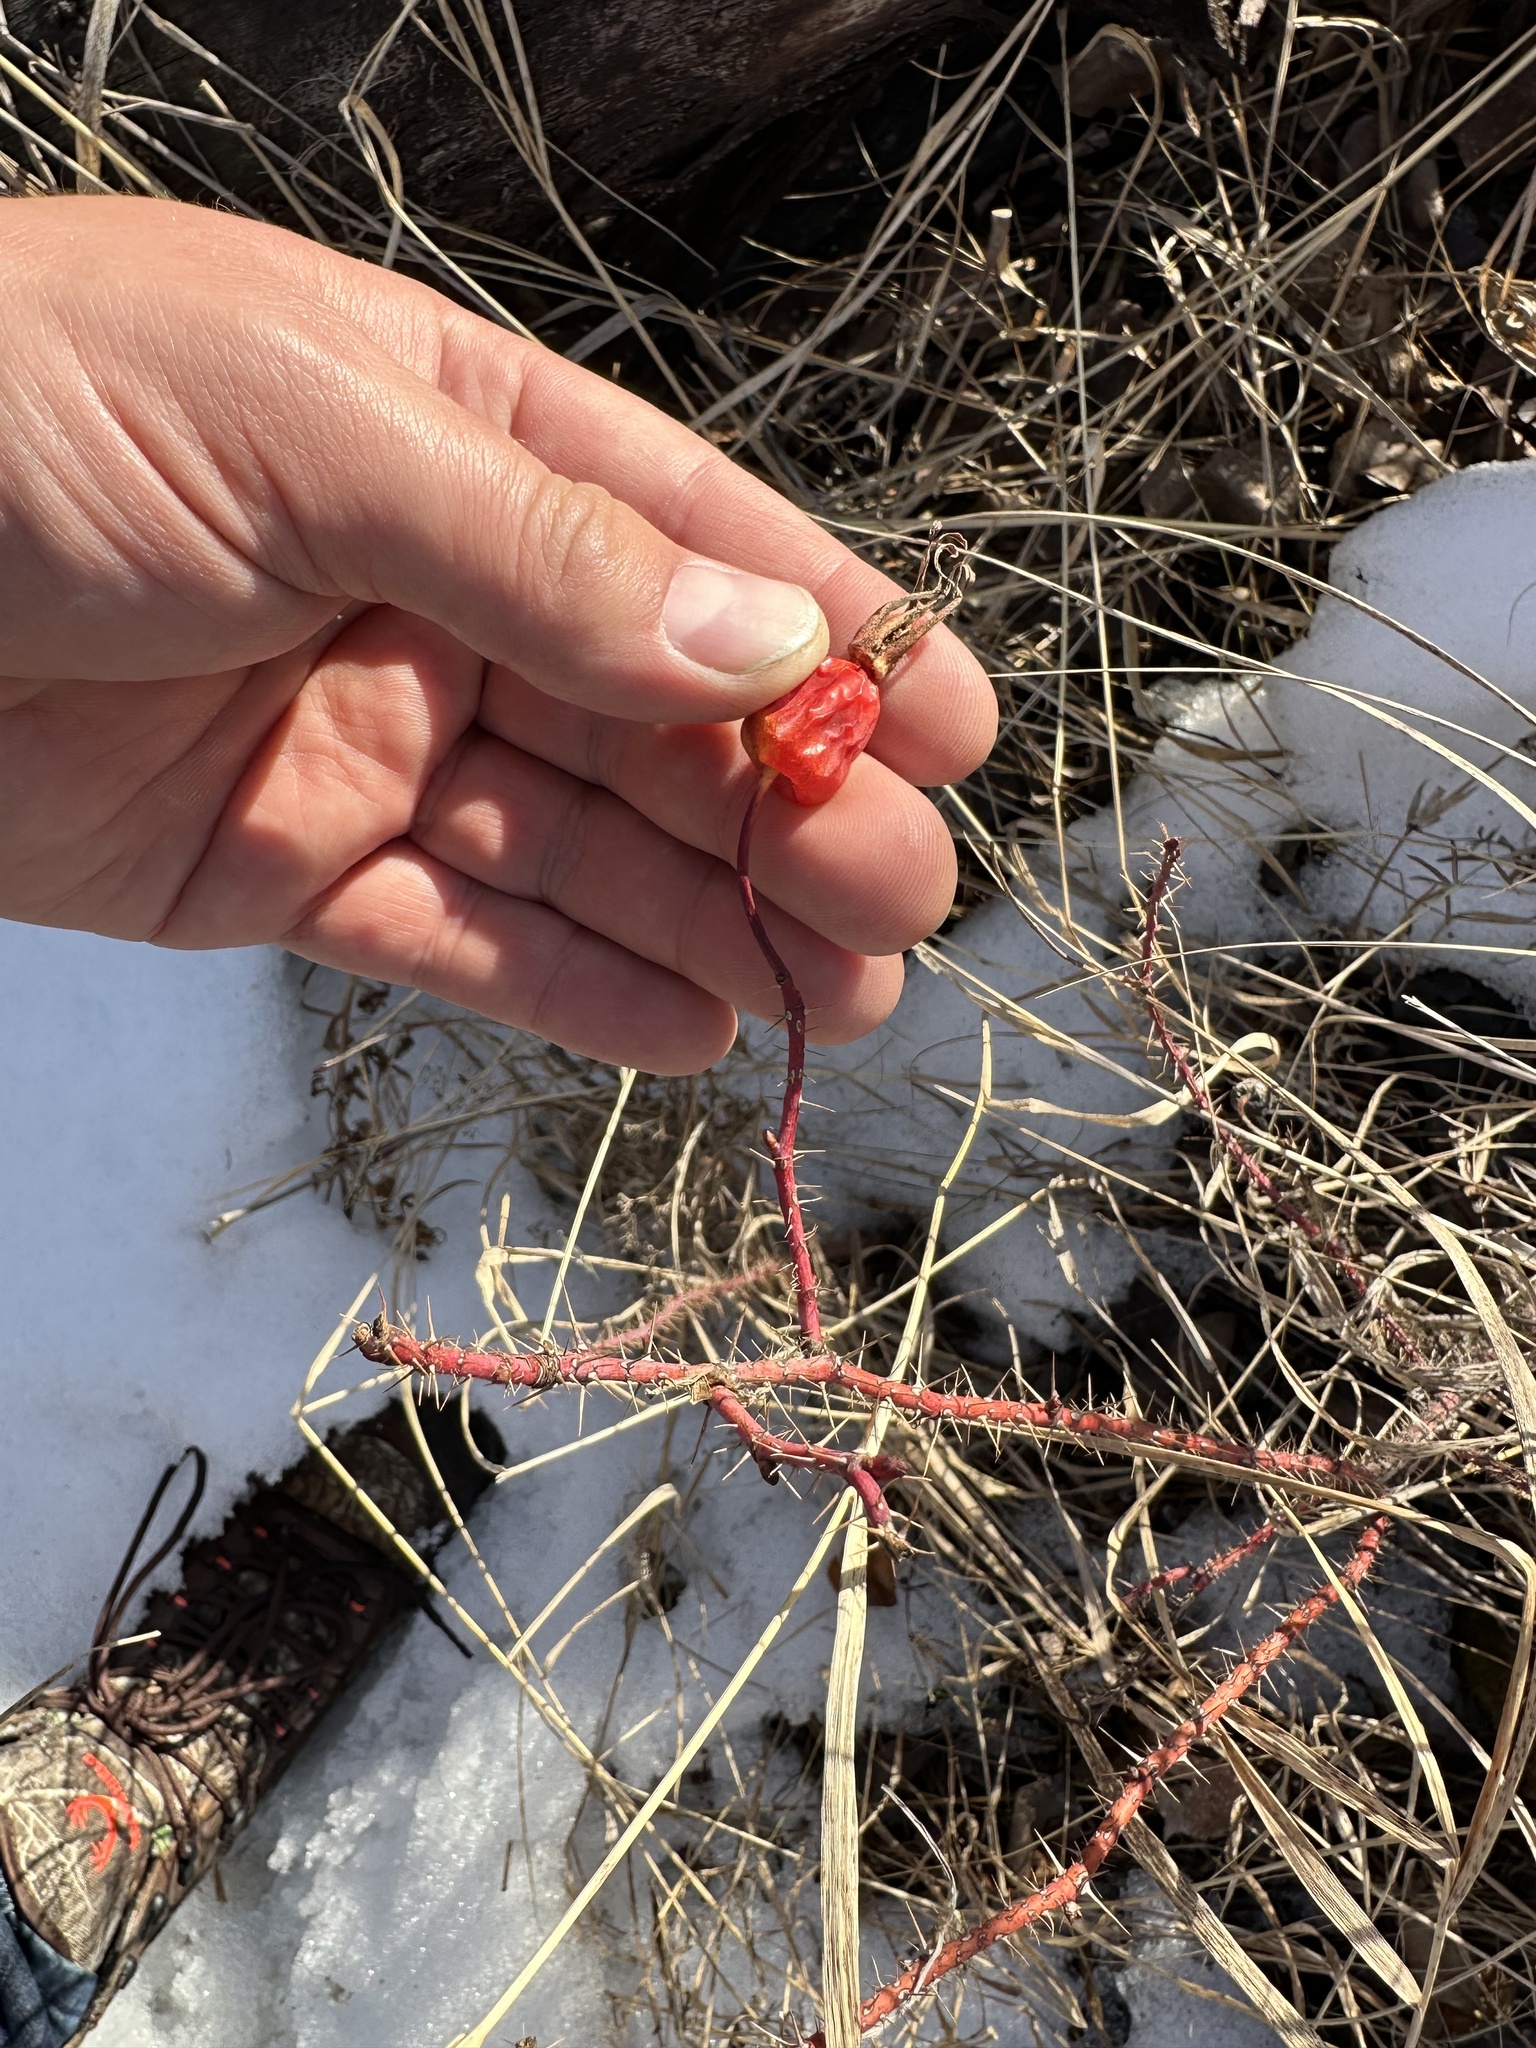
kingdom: Plantae
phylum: Tracheophyta
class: Magnoliopsida
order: Rosales
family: Rosaceae
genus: Rosa
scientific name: Rosa acicularis
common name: Prickly rose
